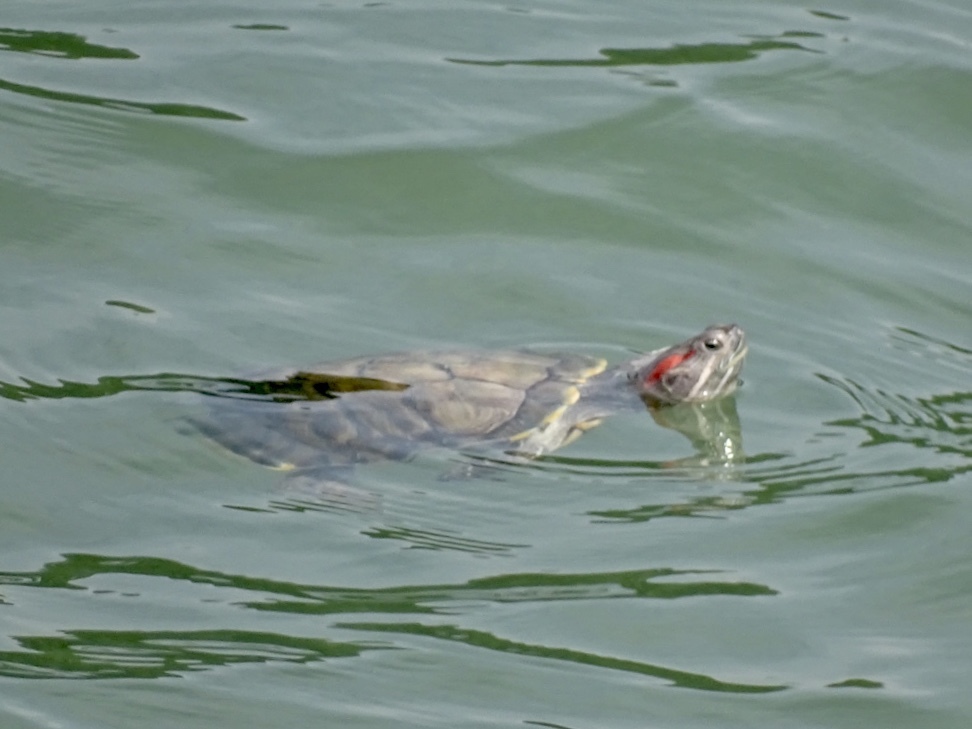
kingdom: Animalia
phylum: Chordata
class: Testudines
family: Emydidae
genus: Trachemys
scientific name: Trachemys scripta
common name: Slider
